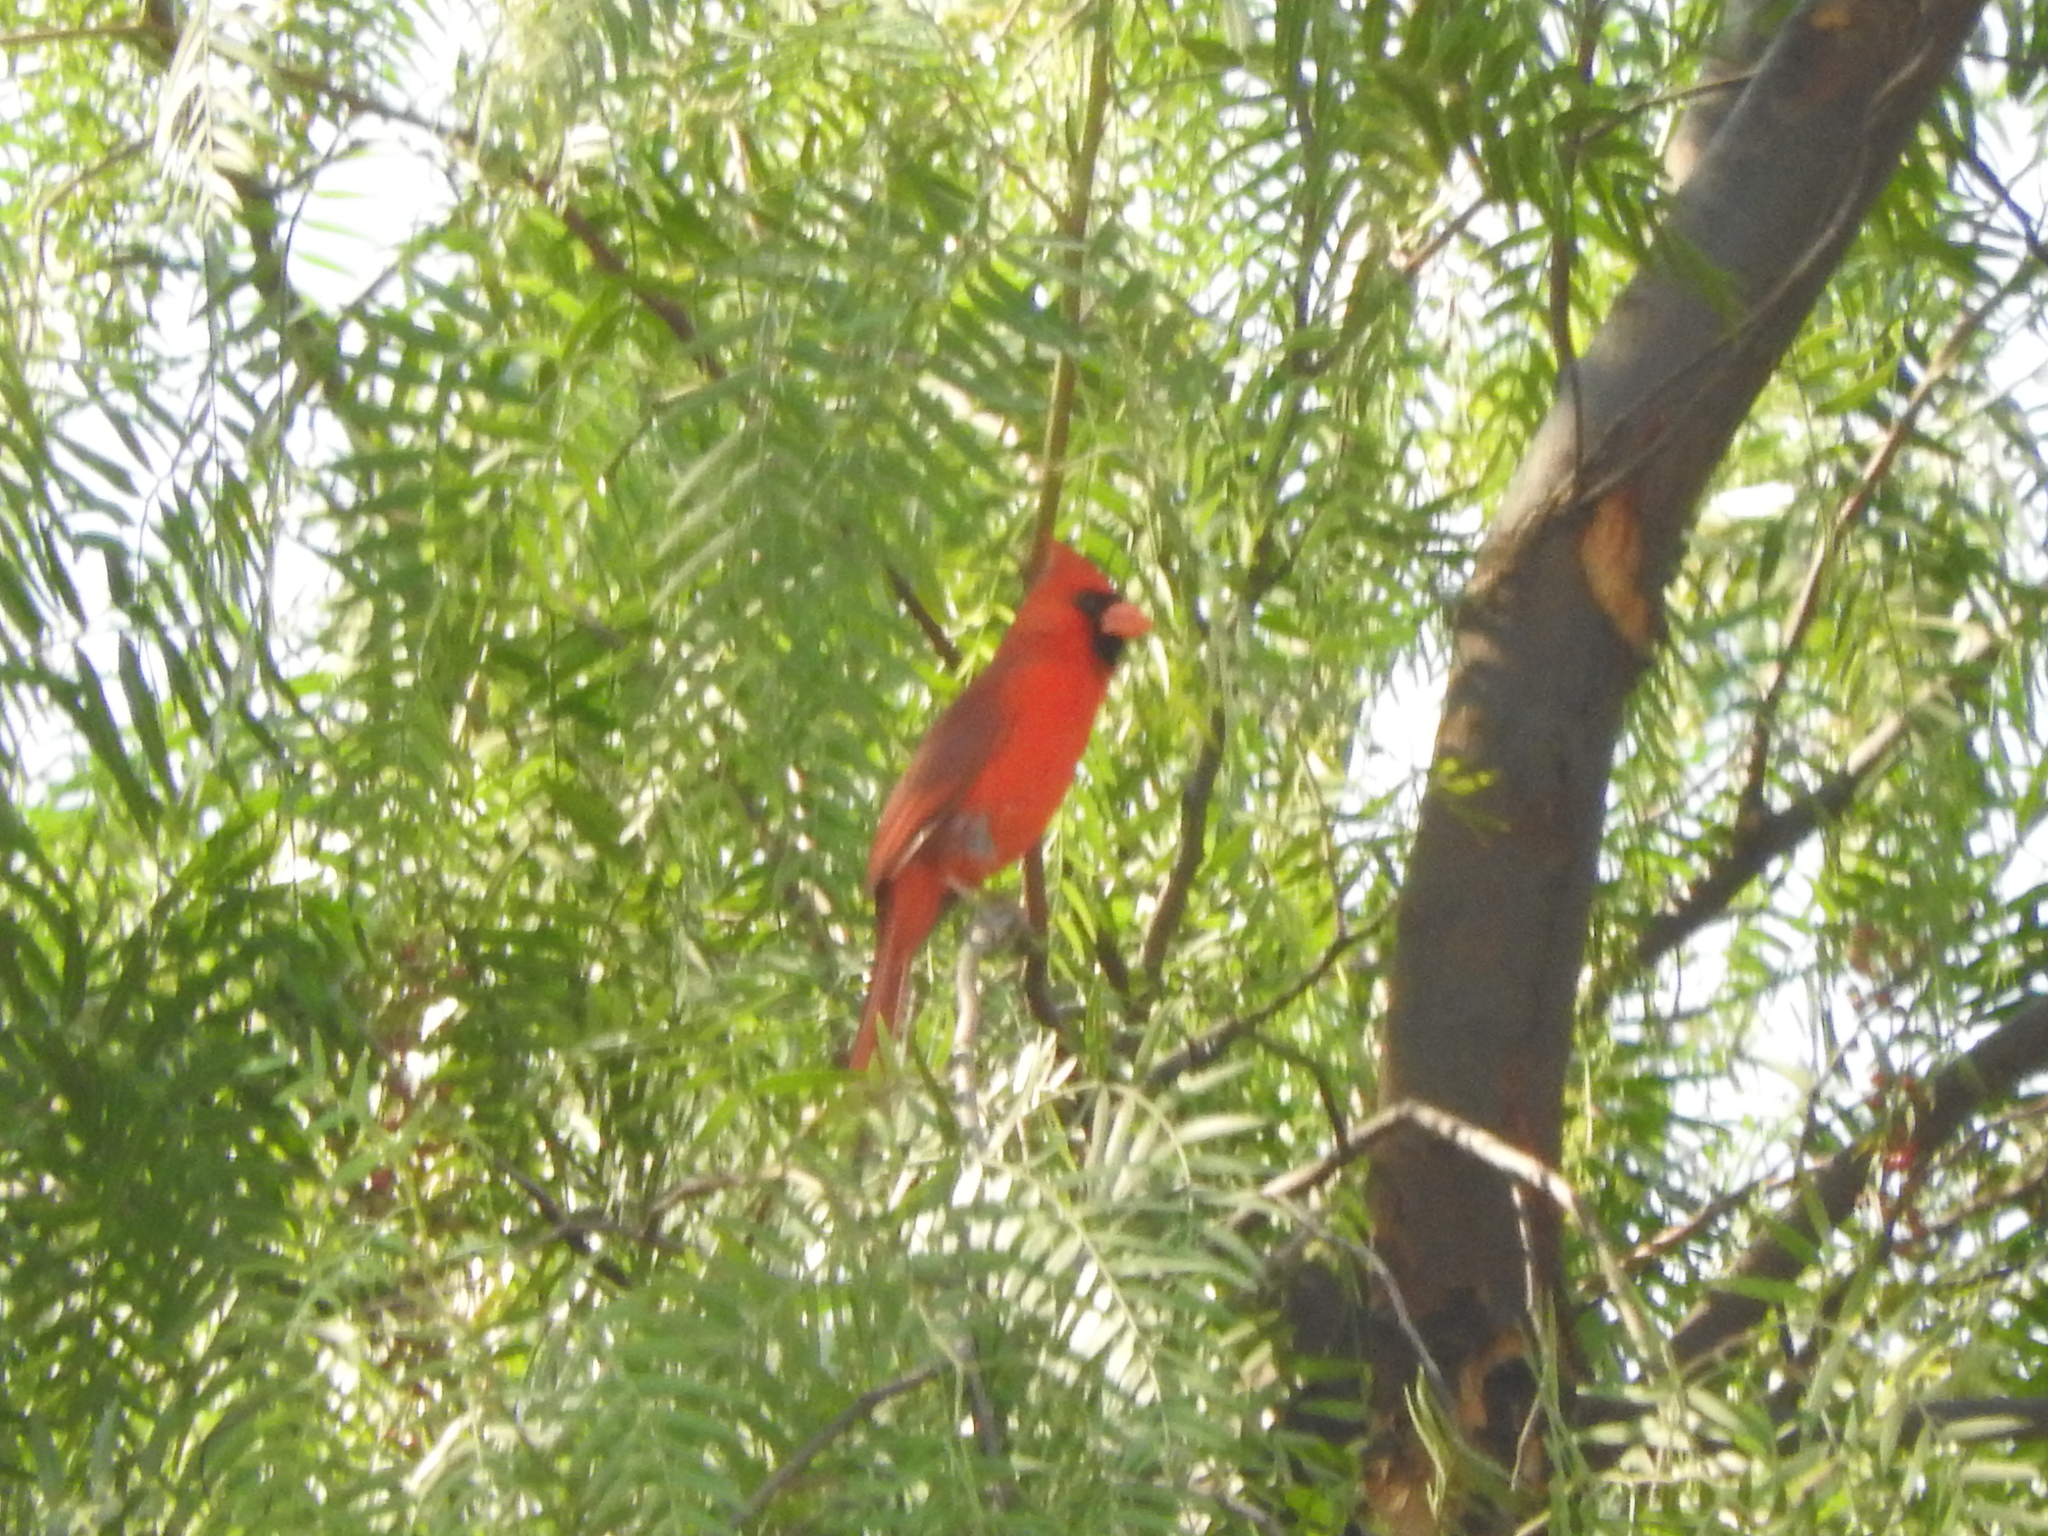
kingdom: Animalia
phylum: Chordata
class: Aves
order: Passeriformes
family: Cardinalidae
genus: Cardinalis
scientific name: Cardinalis cardinalis
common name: Northern cardinal
